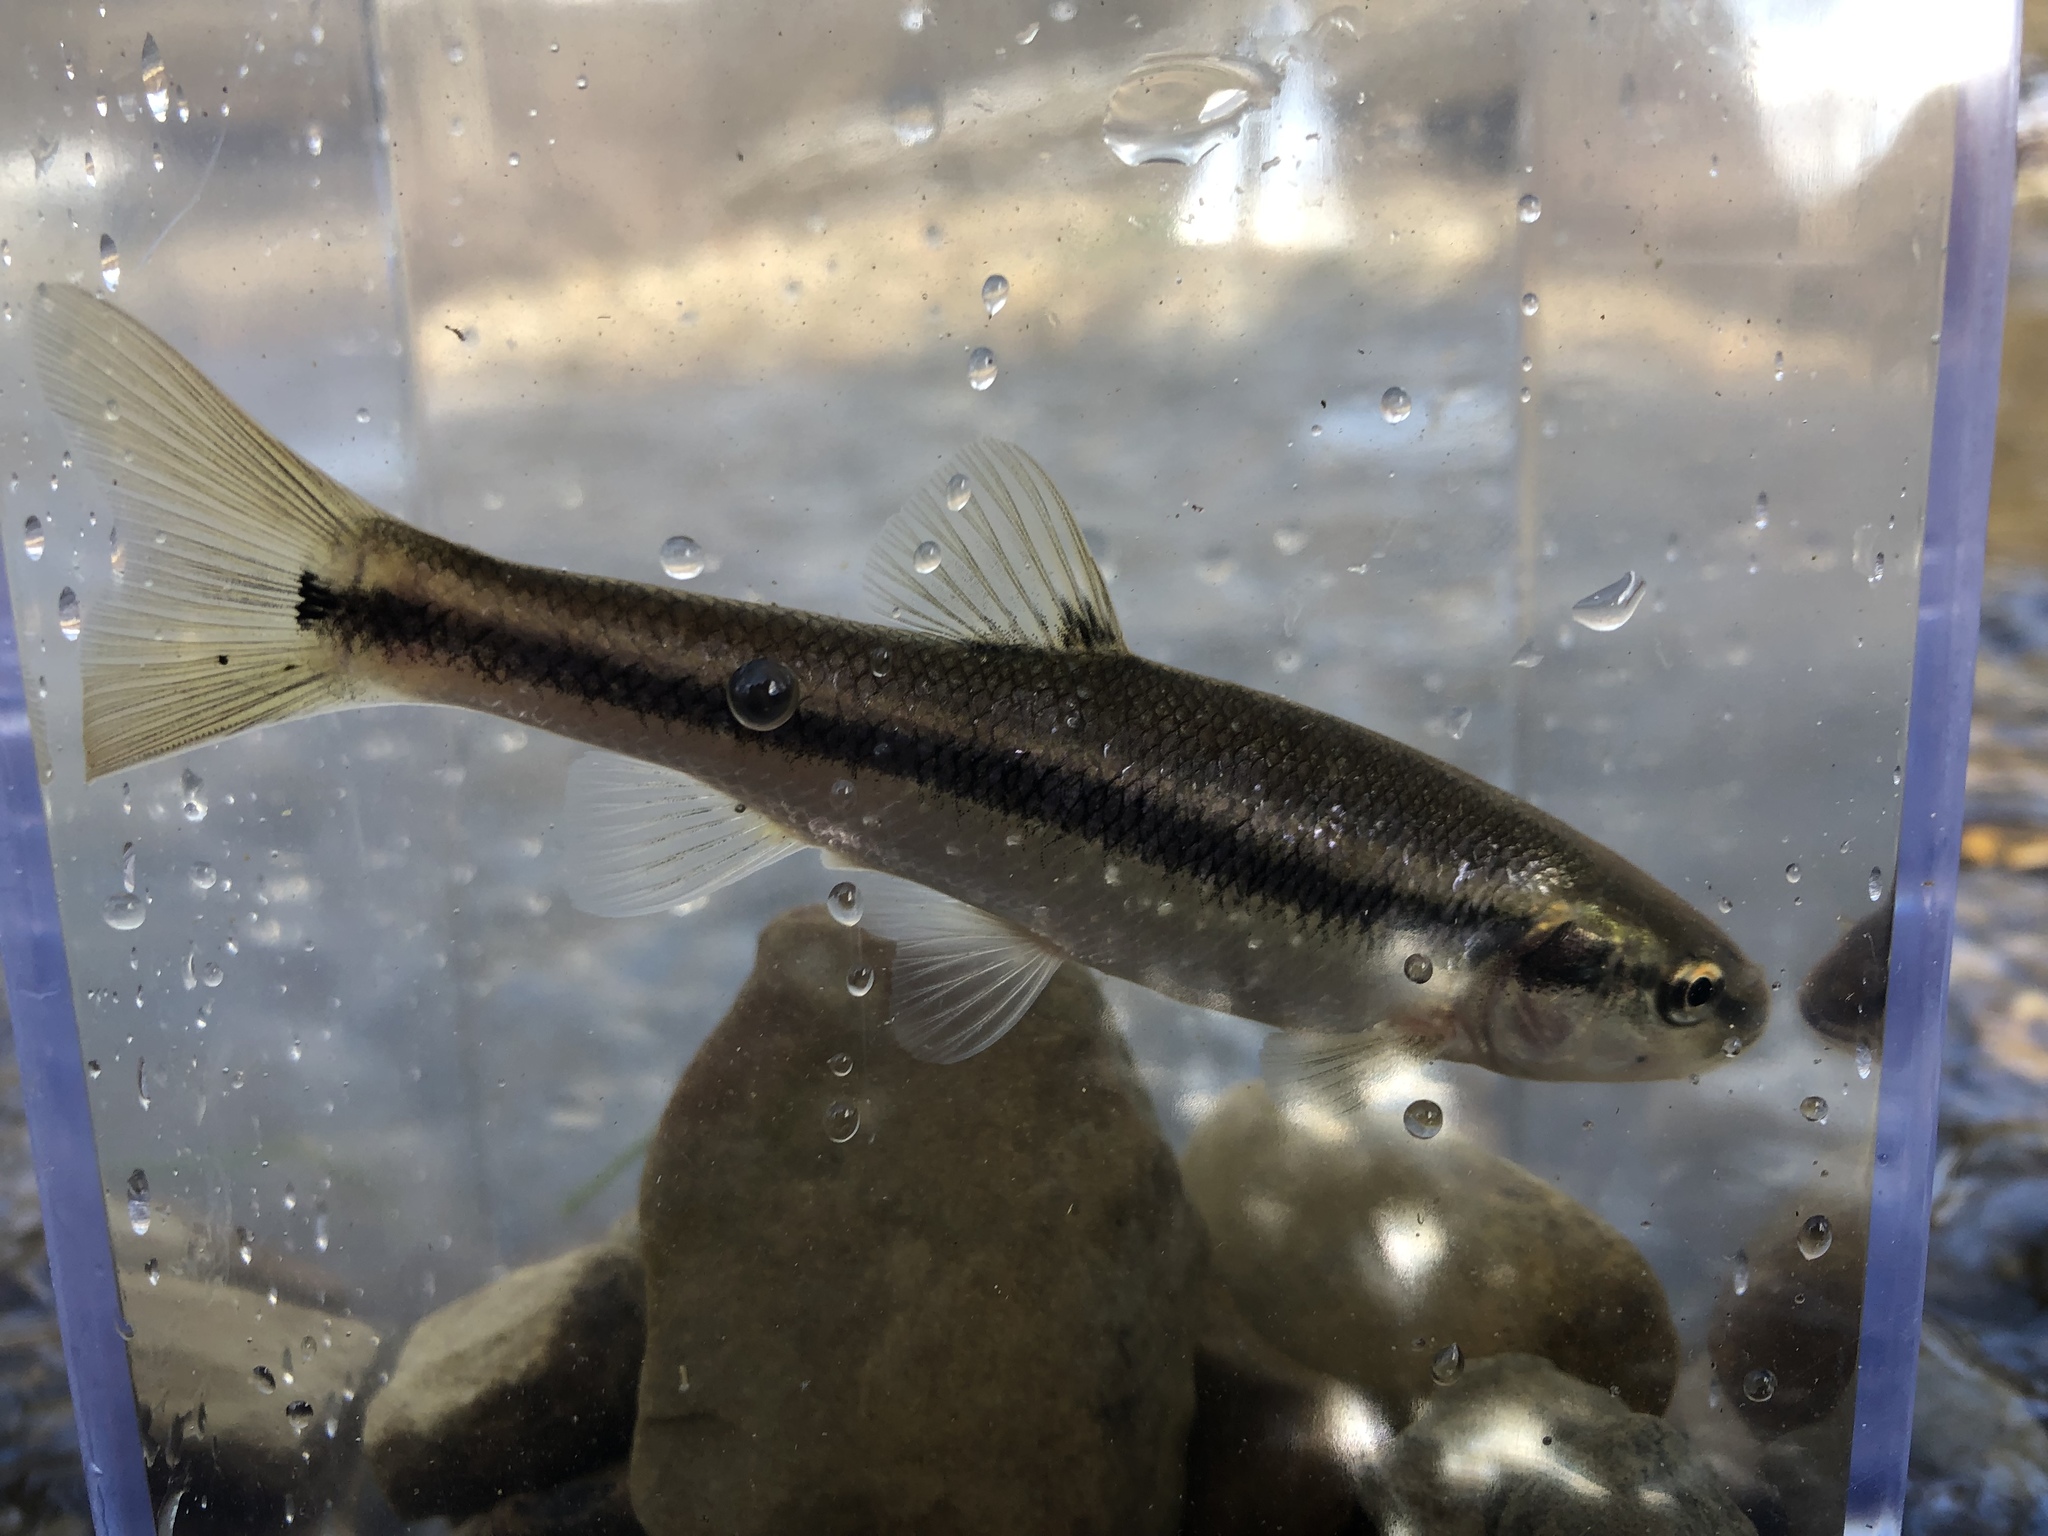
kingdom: Animalia
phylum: Chordata
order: Cypriniformes
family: Cyprinidae
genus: Semotilus
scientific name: Semotilus atromaculatus
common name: Creek chub
